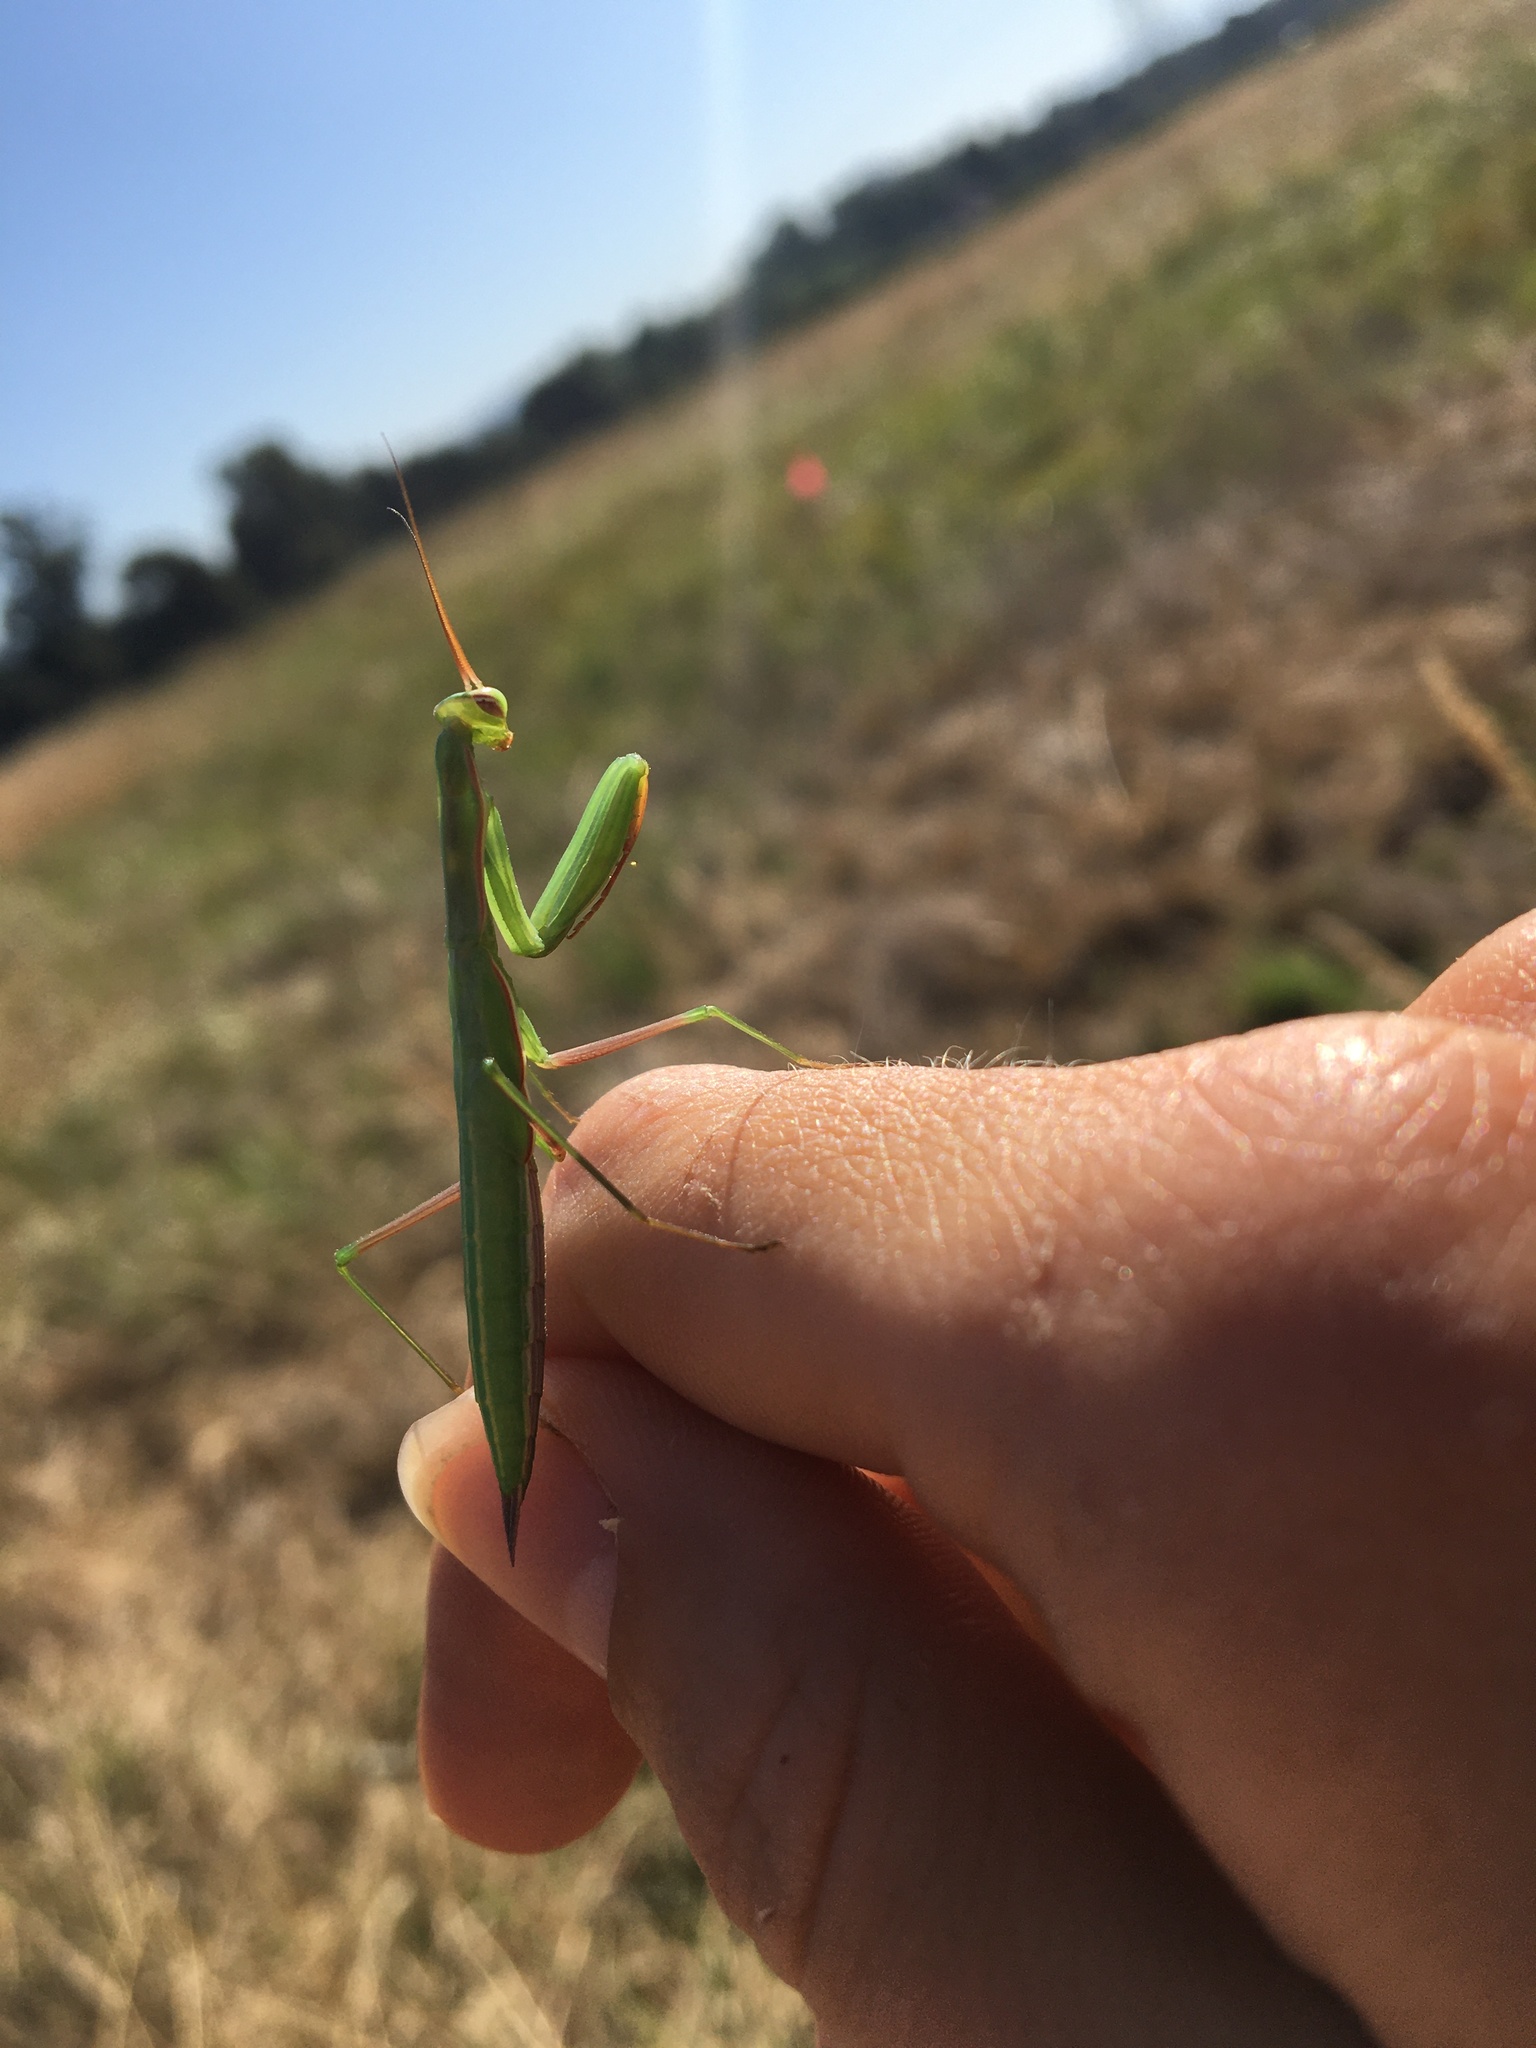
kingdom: Animalia
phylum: Arthropoda
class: Insecta
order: Mantodea
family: Mantidae
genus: Mantis
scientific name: Mantis religiosa
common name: Praying mantis
